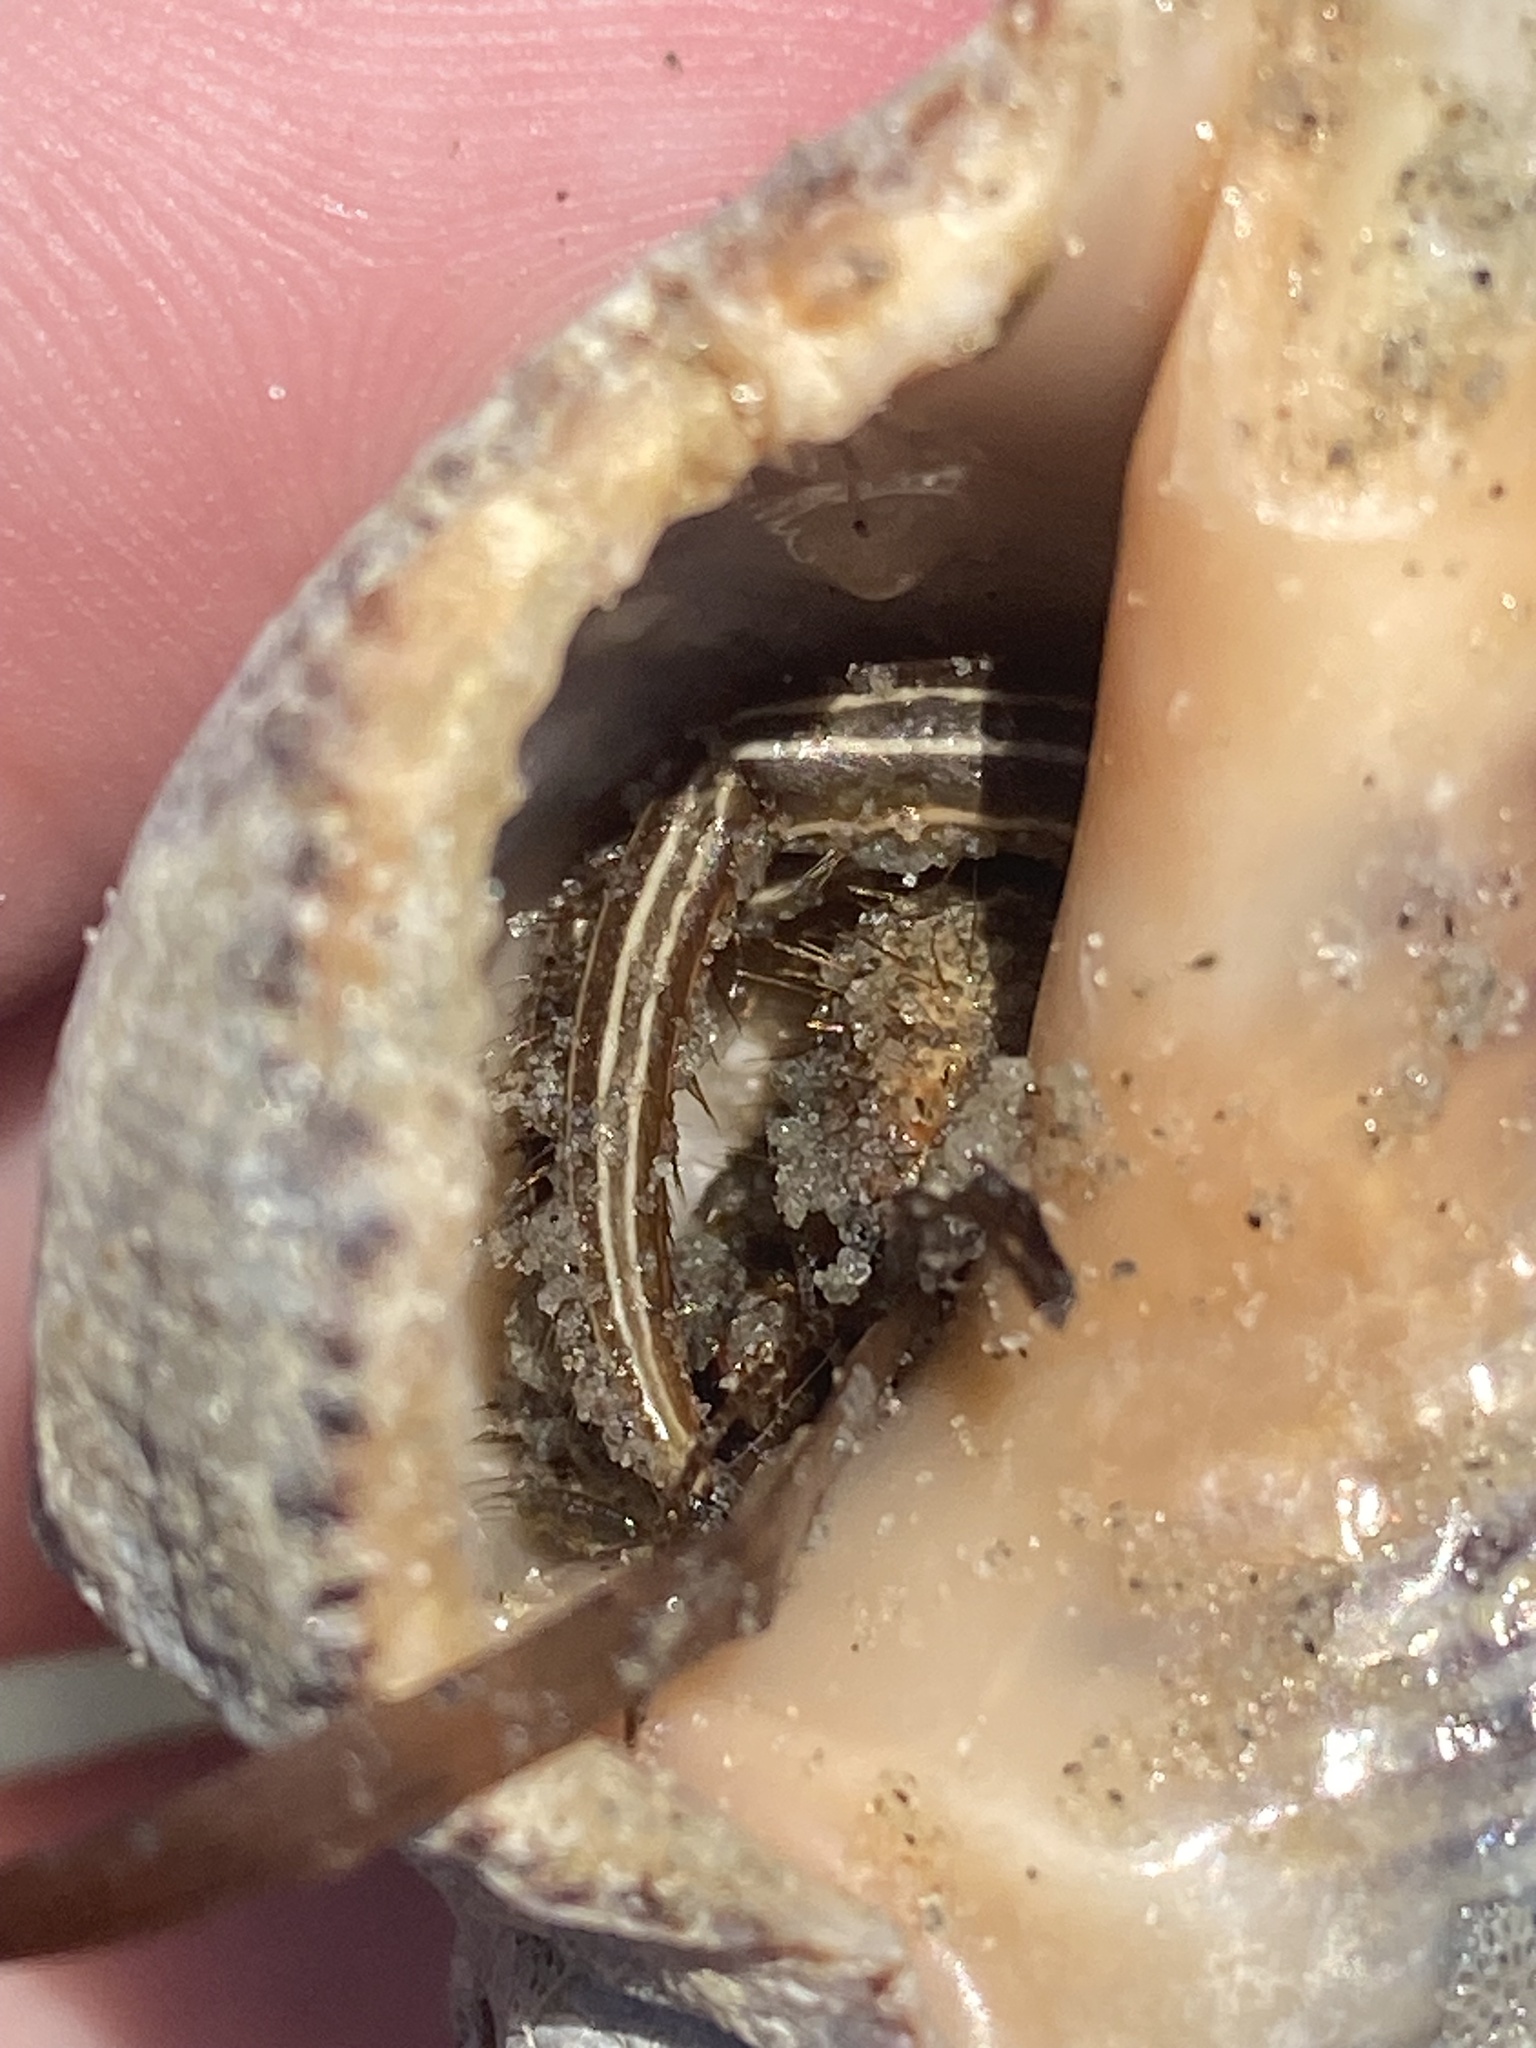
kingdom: Animalia
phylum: Arthropoda
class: Malacostraca
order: Decapoda
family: Diogenidae
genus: Clibanarius
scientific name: Clibanarius vittatus
